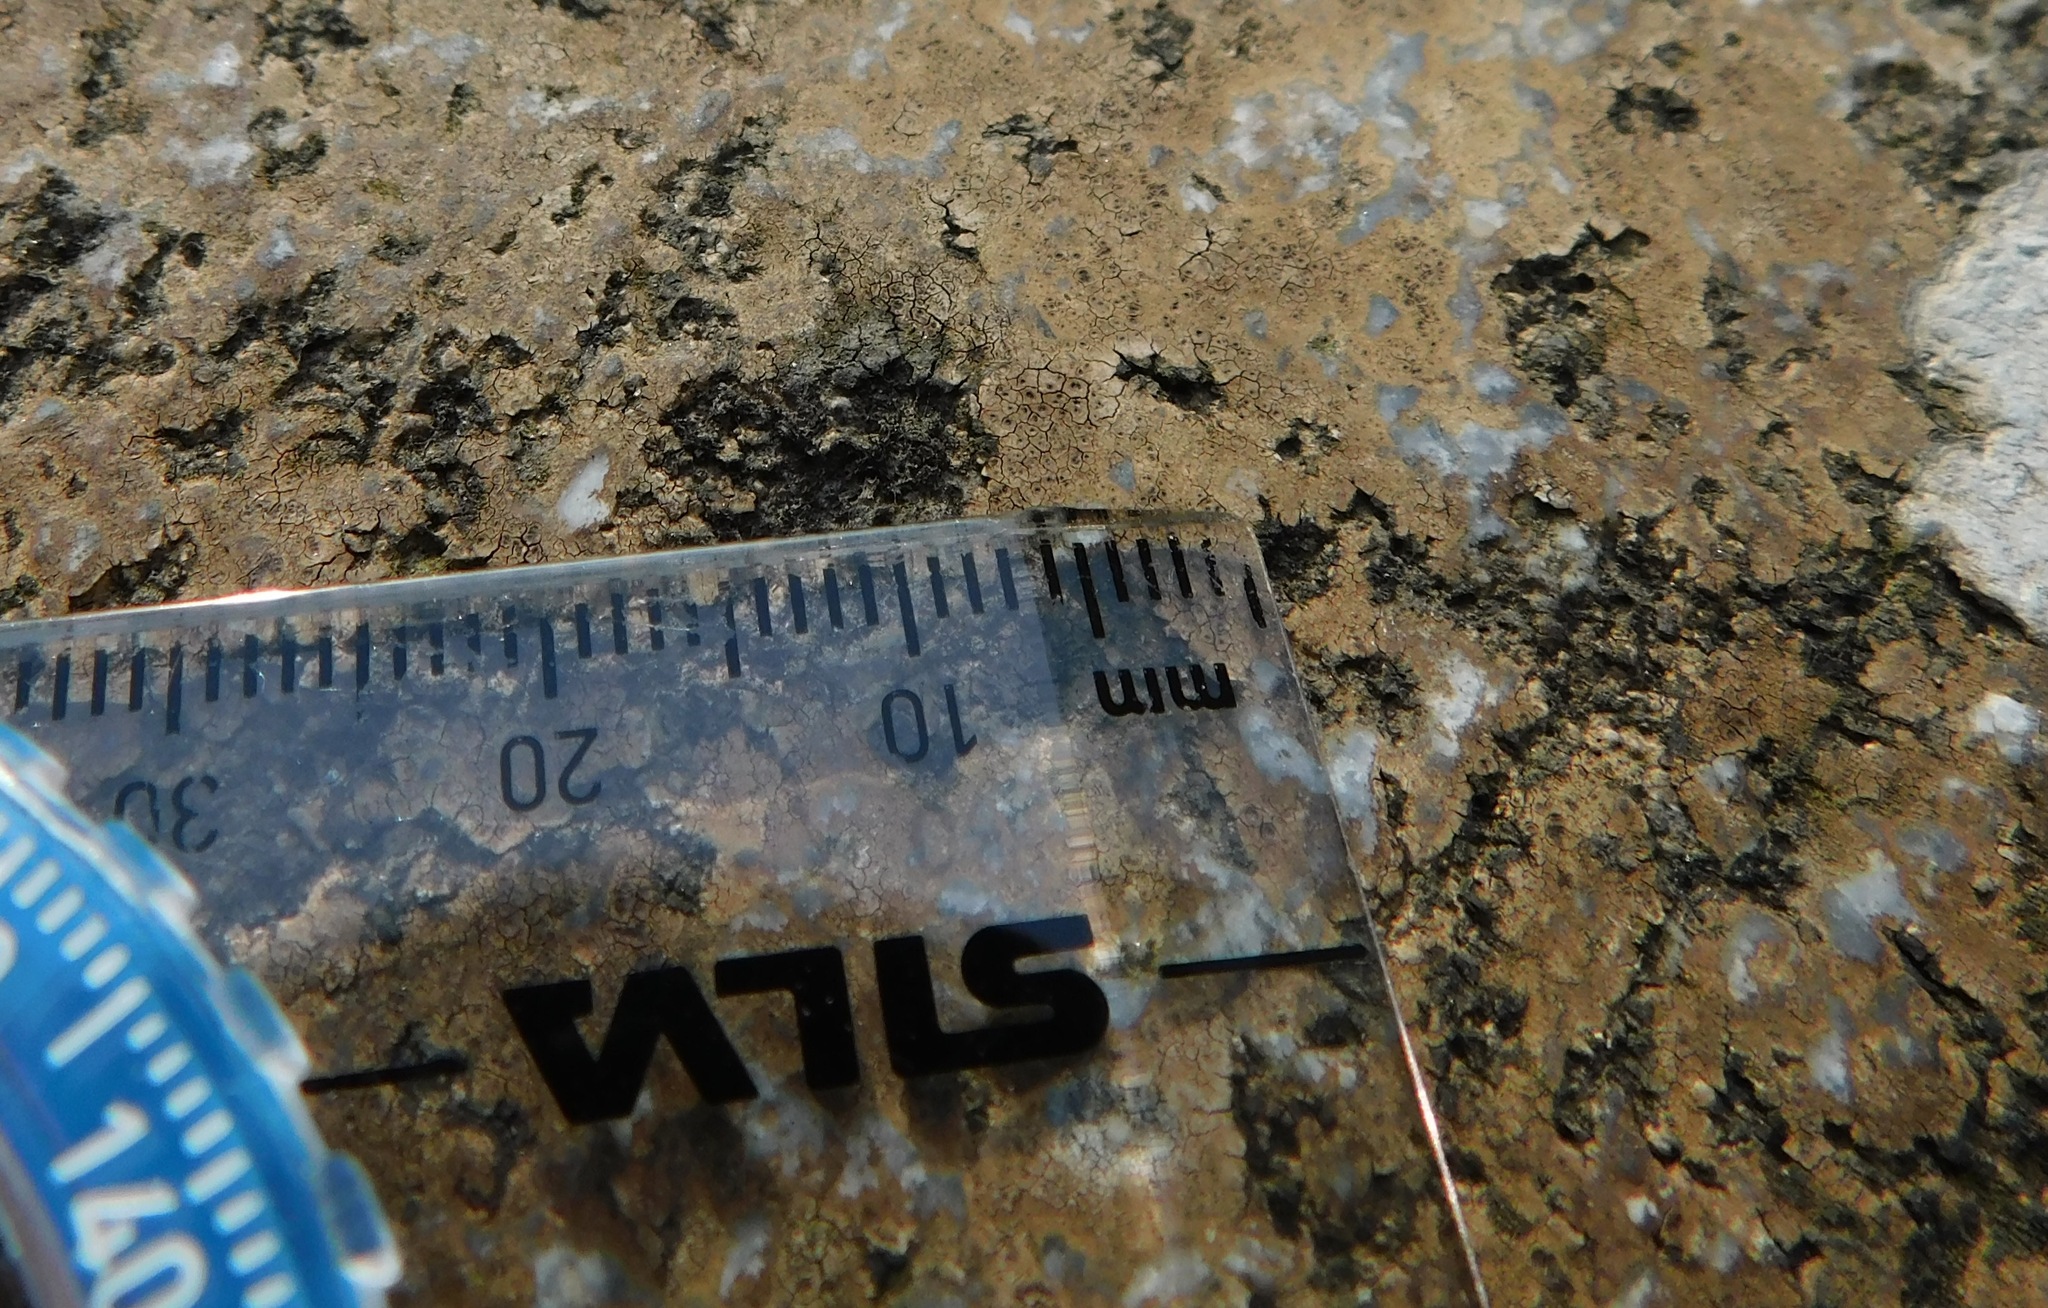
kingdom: Fungi
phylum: Ascomycota
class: Lecanoromycetes
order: Hymeneliales
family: Hymeneliaceae
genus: Ionaspis
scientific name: Ionaspis lacustris
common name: Rusty brook lichen
